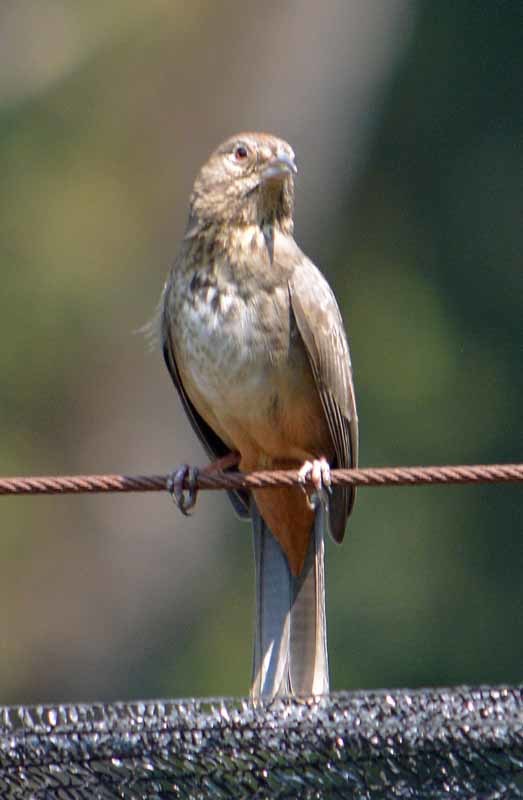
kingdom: Animalia
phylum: Chordata
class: Aves
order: Passeriformes
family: Passerellidae
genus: Melozone
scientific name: Melozone fusca
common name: Canyon towhee
